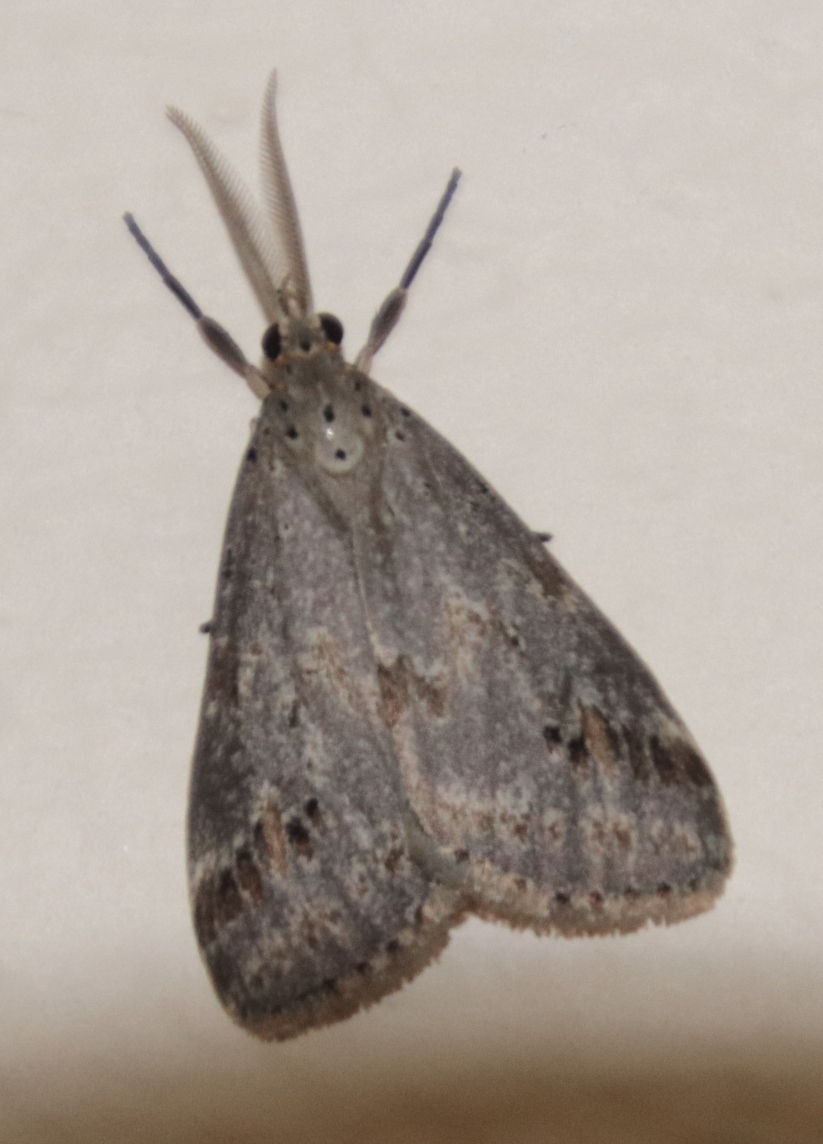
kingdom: Animalia
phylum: Arthropoda
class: Insecta
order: Lepidoptera
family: Erebidae
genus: Galtara
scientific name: Galtara rostrata
